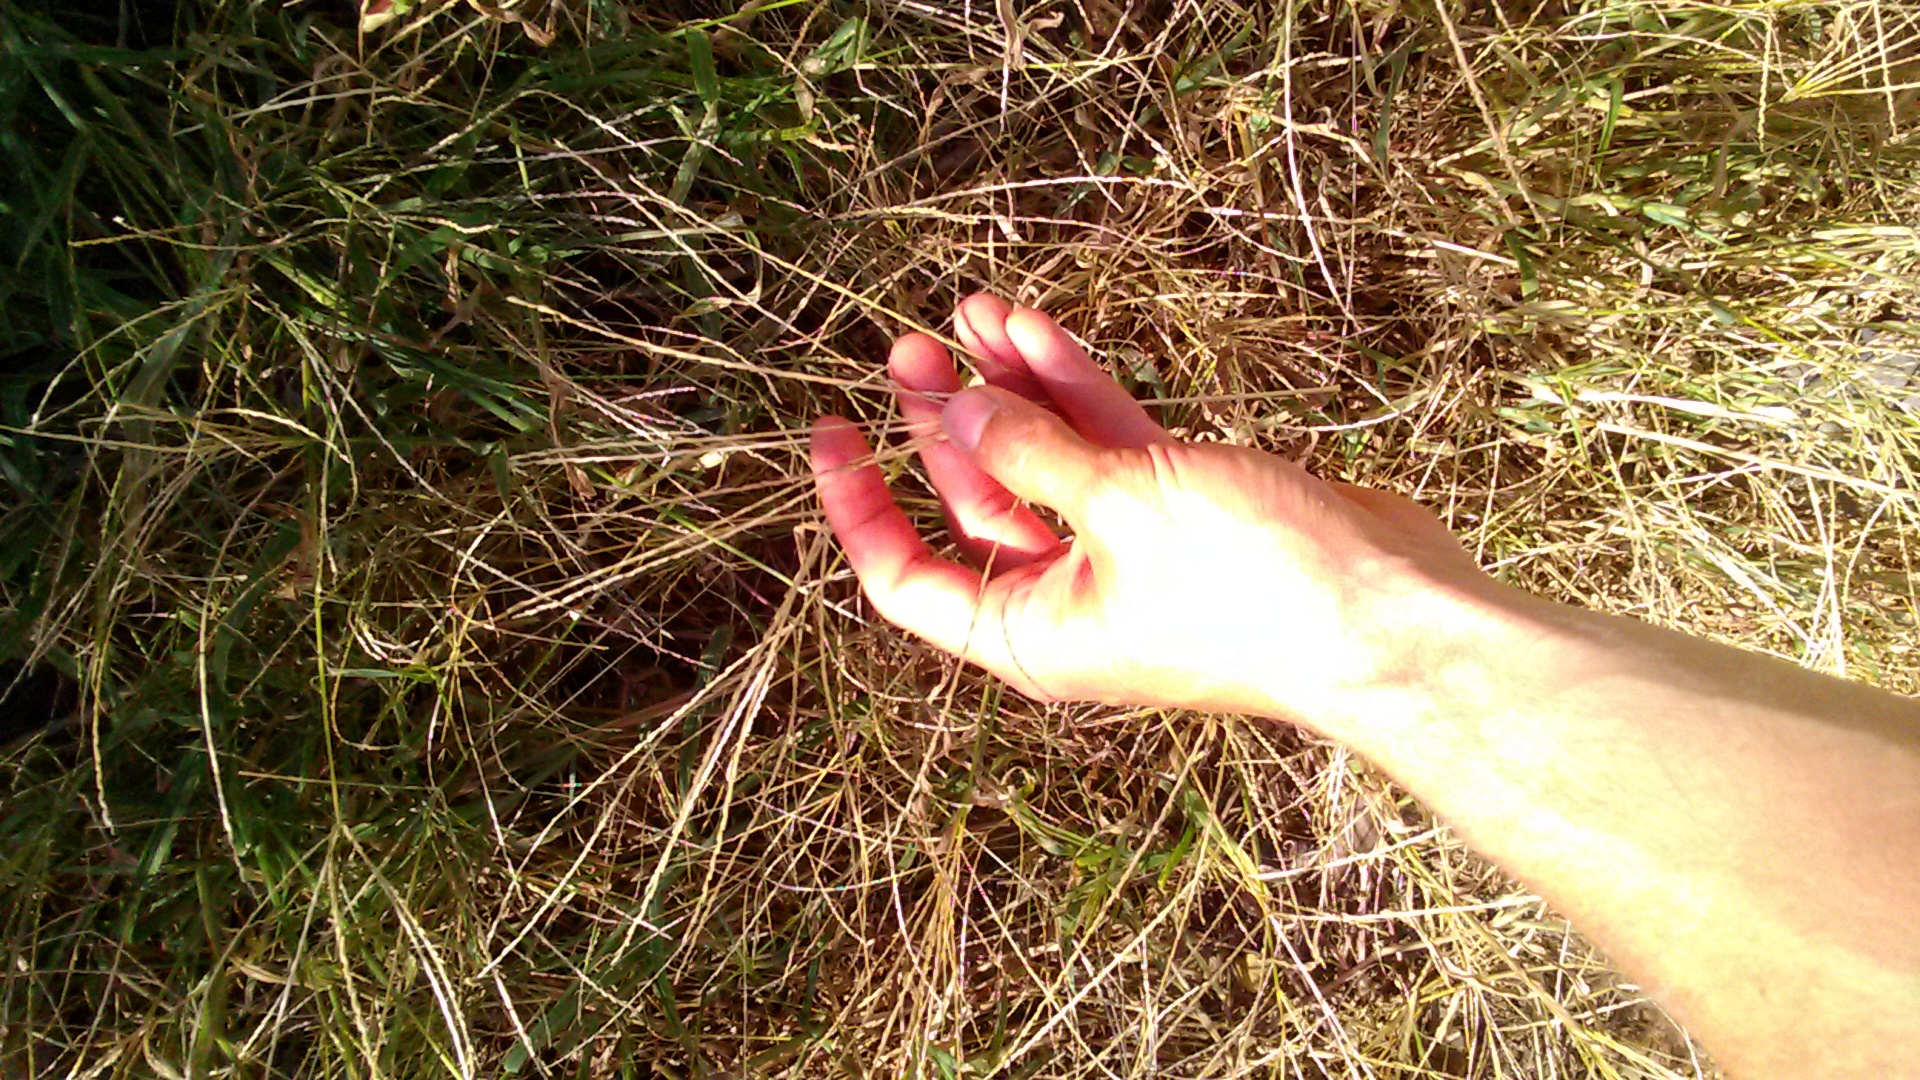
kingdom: Plantae
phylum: Tracheophyta
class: Liliopsida
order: Poales
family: Poaceae
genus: Digitaria
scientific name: Digitaria sanguinalis
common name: Hairy crabgrass
